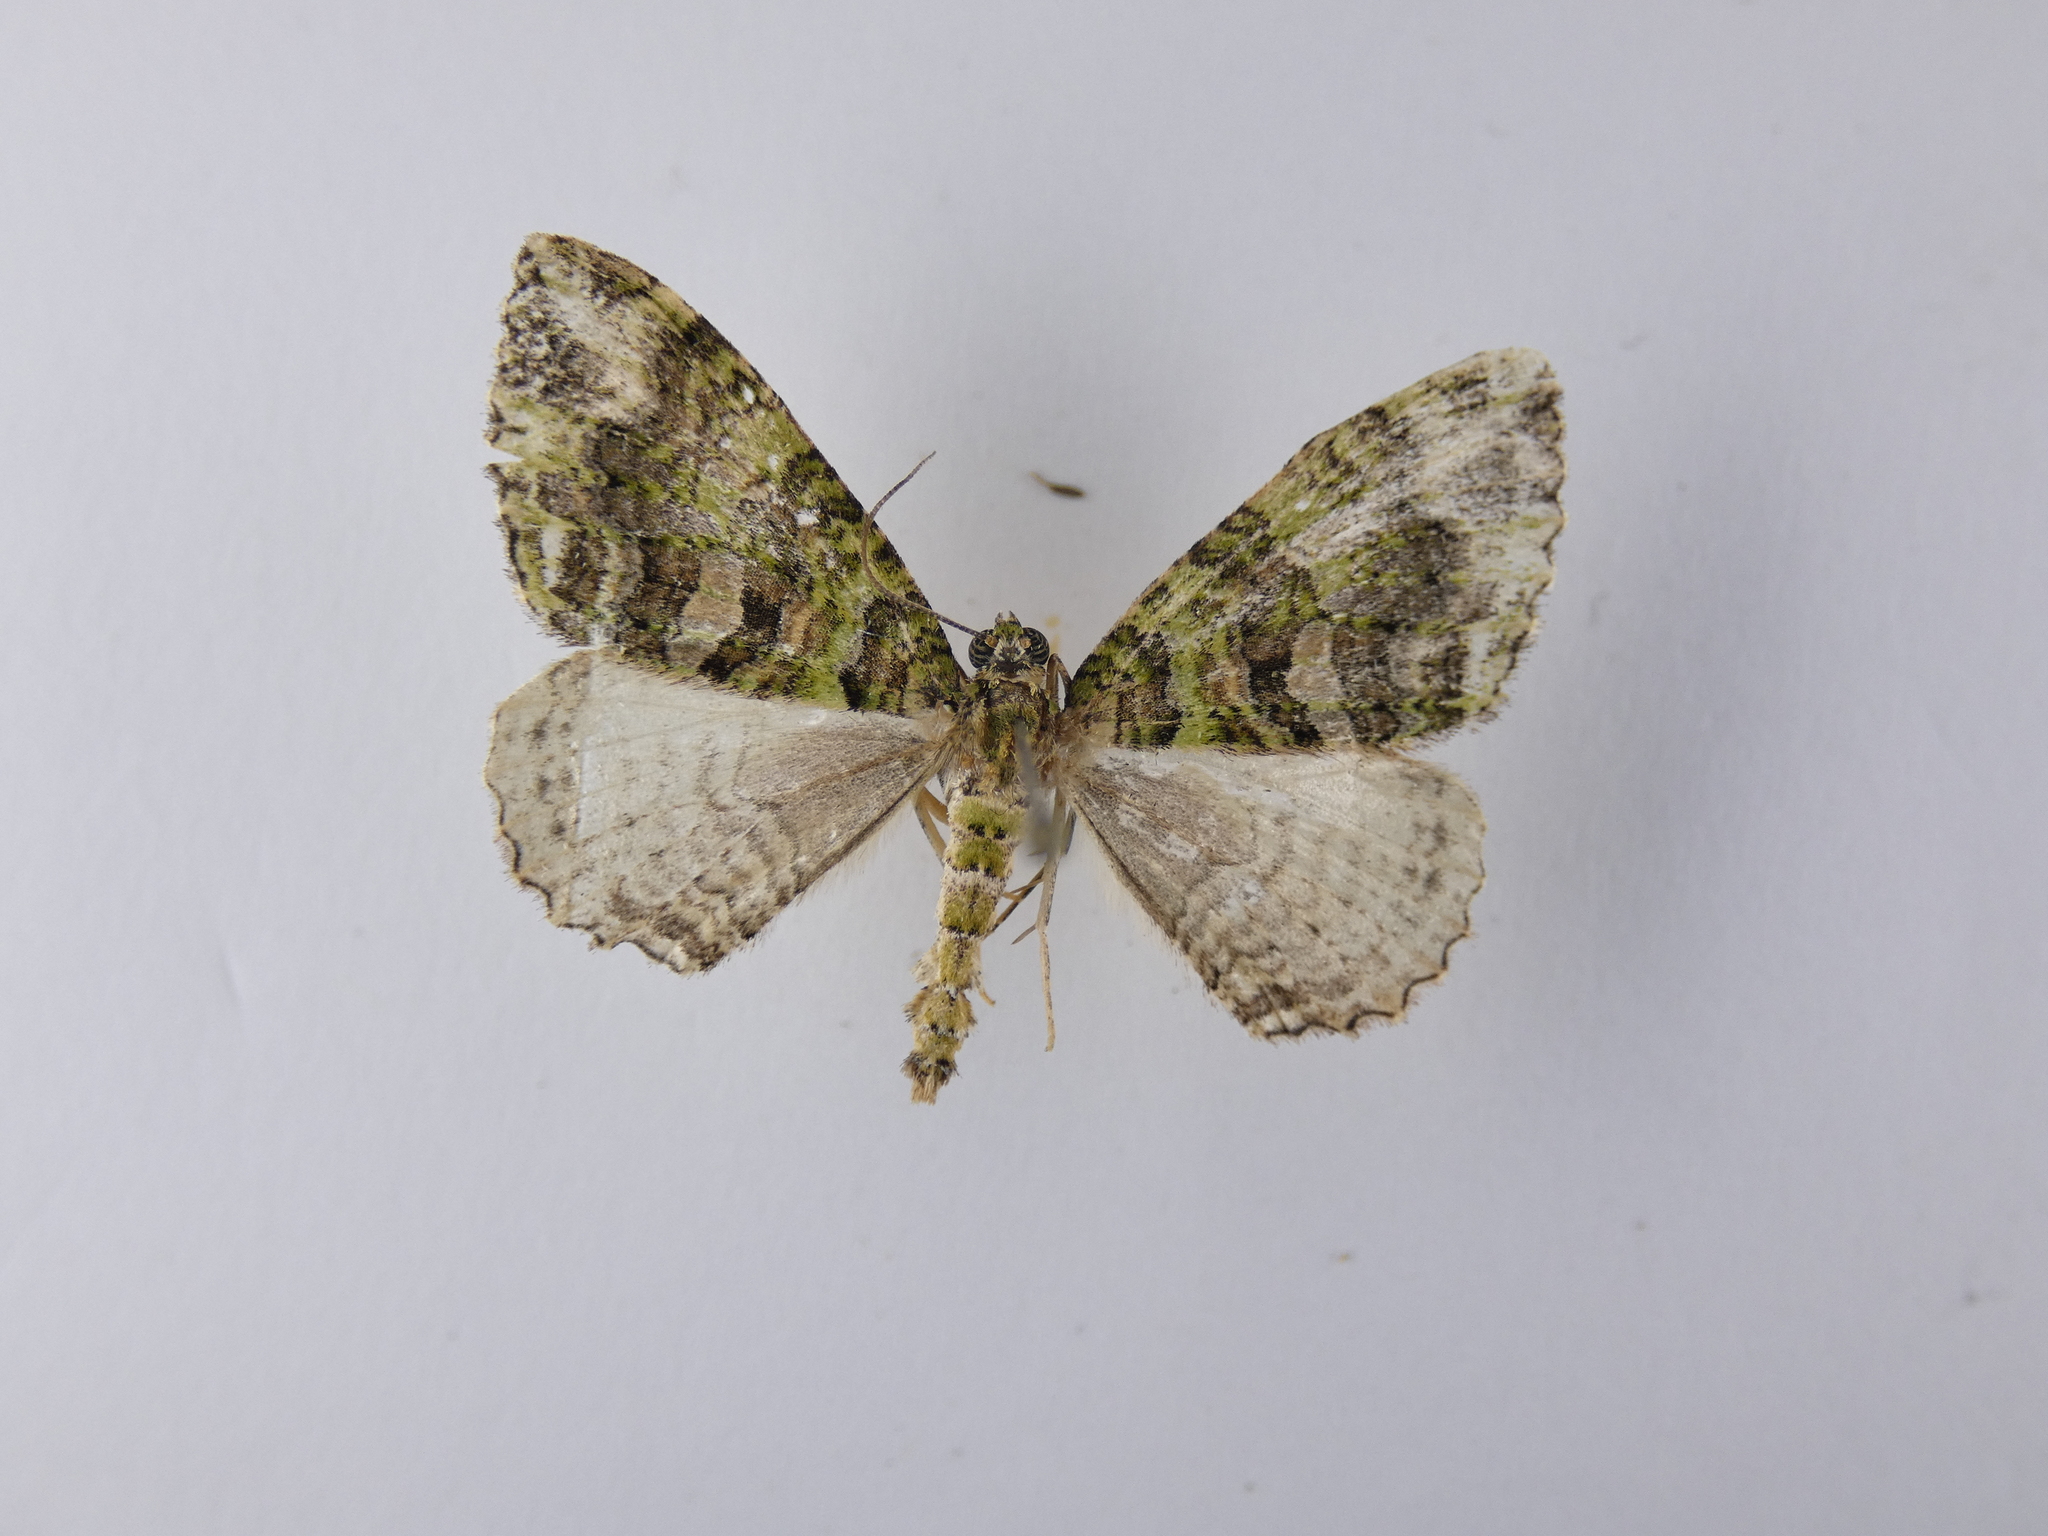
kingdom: Animalia
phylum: Arthropoda
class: Insecta
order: Lepidoptera
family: Geometridae
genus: Austrocidaria
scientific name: Austrocidaria similata
